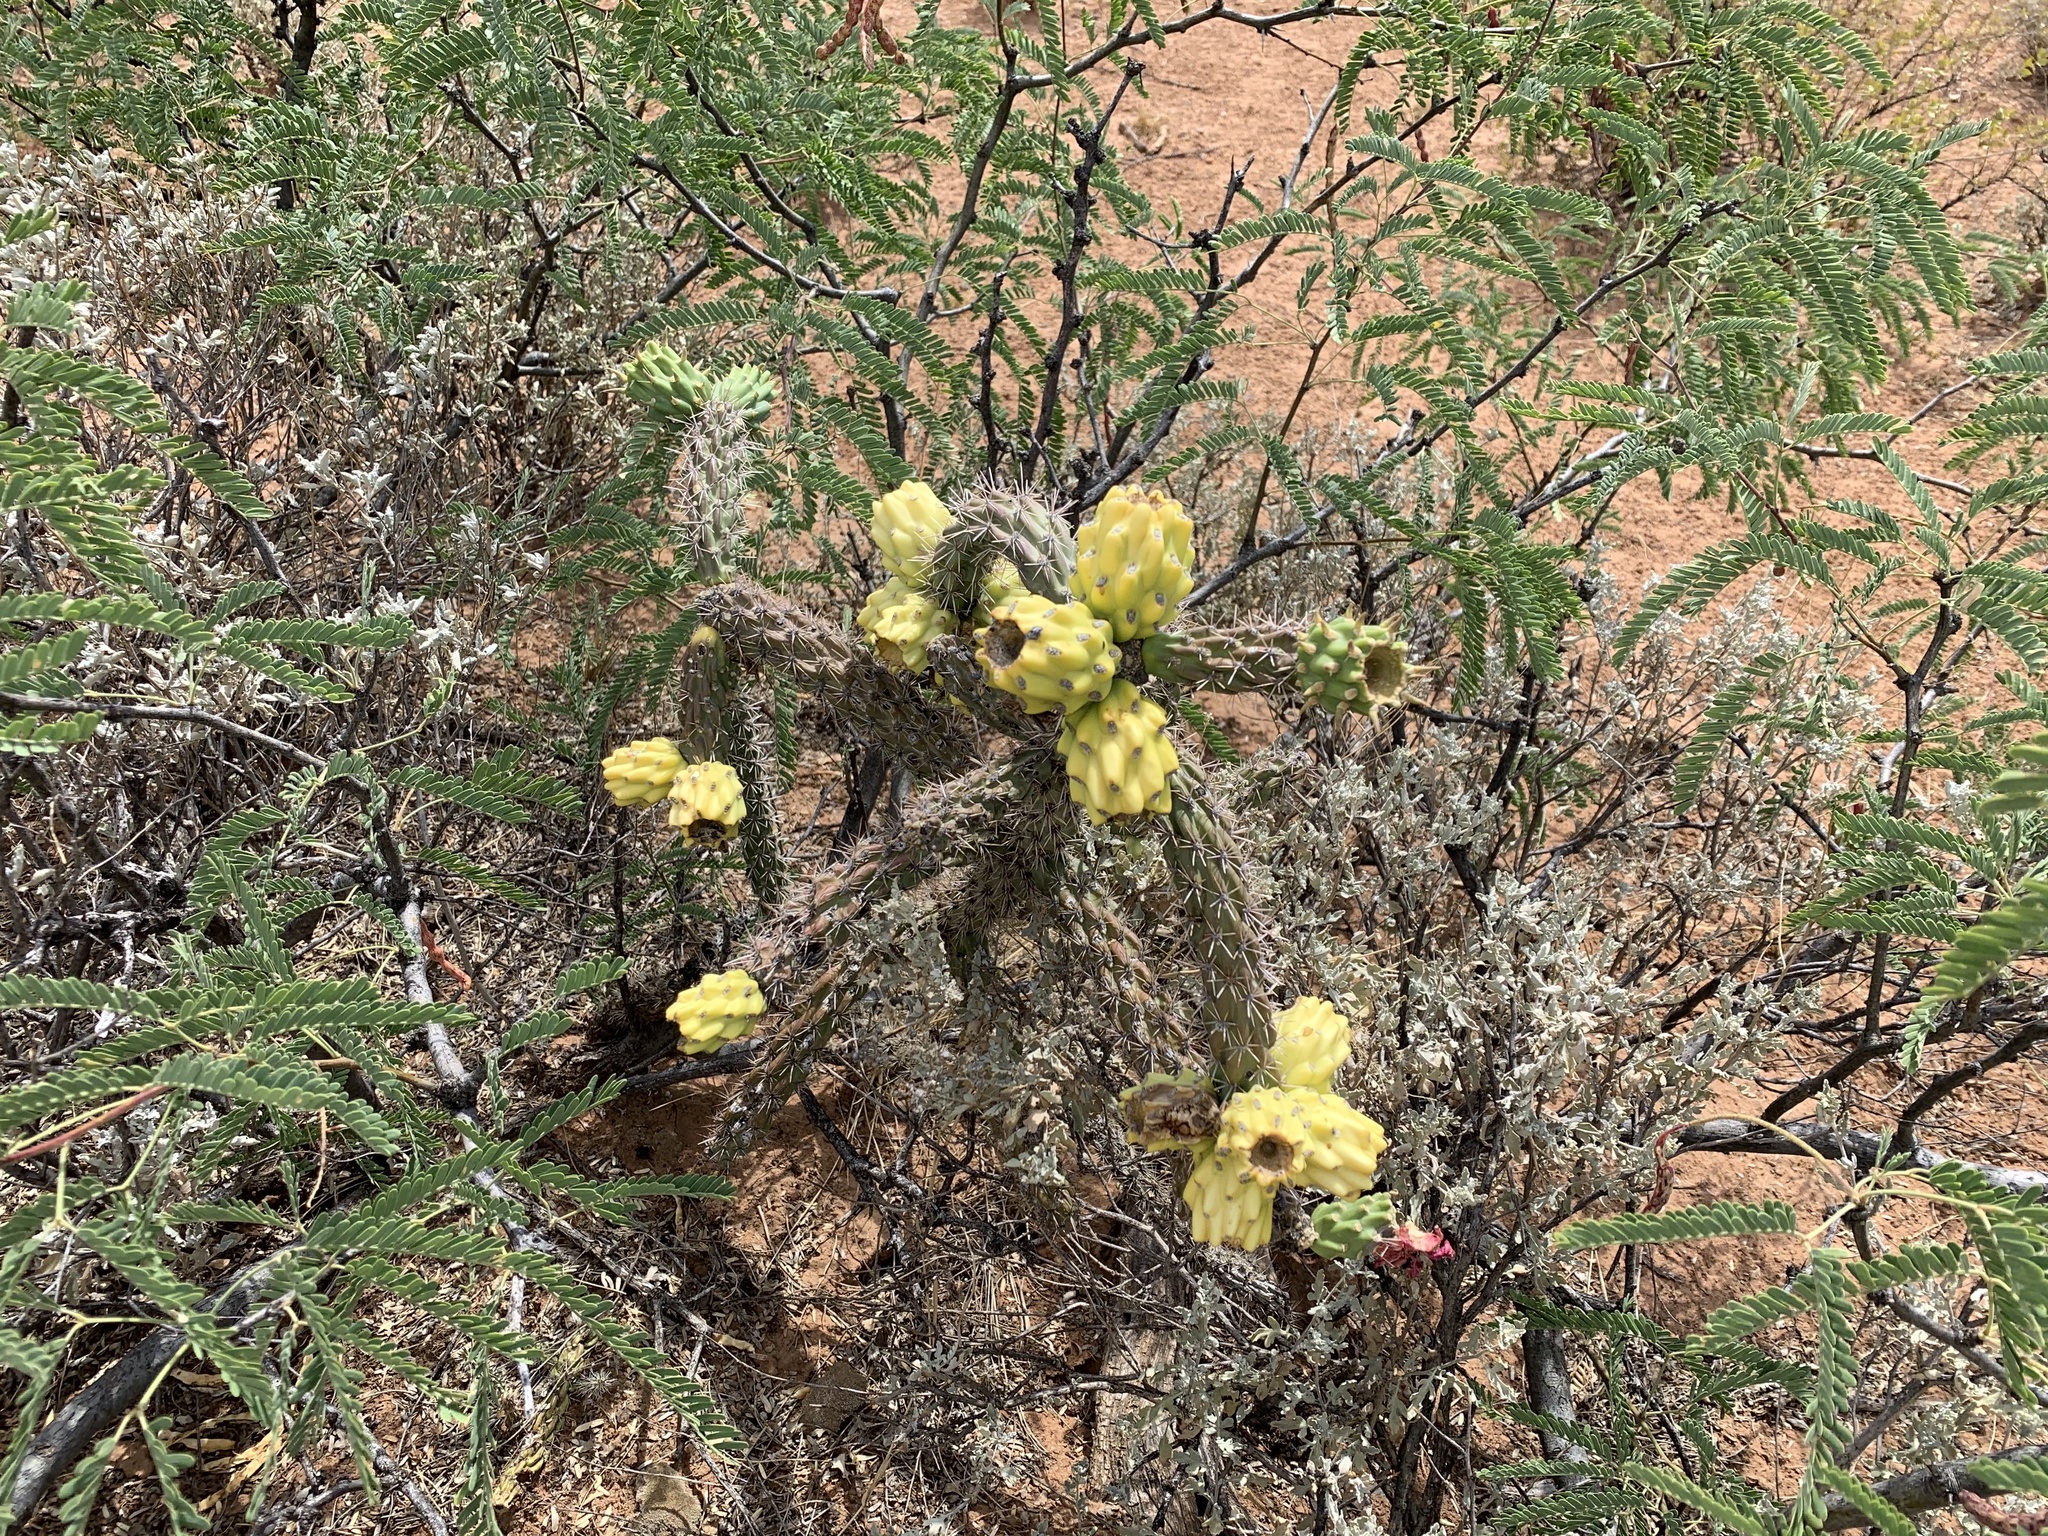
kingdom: Plantae
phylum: Tracheophyta
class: Magnoliopsida
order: Caryophyllales
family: Cactaceae
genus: Cylindropuntia
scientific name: Cylindropuntia imbricata
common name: Candelabrum cactus
